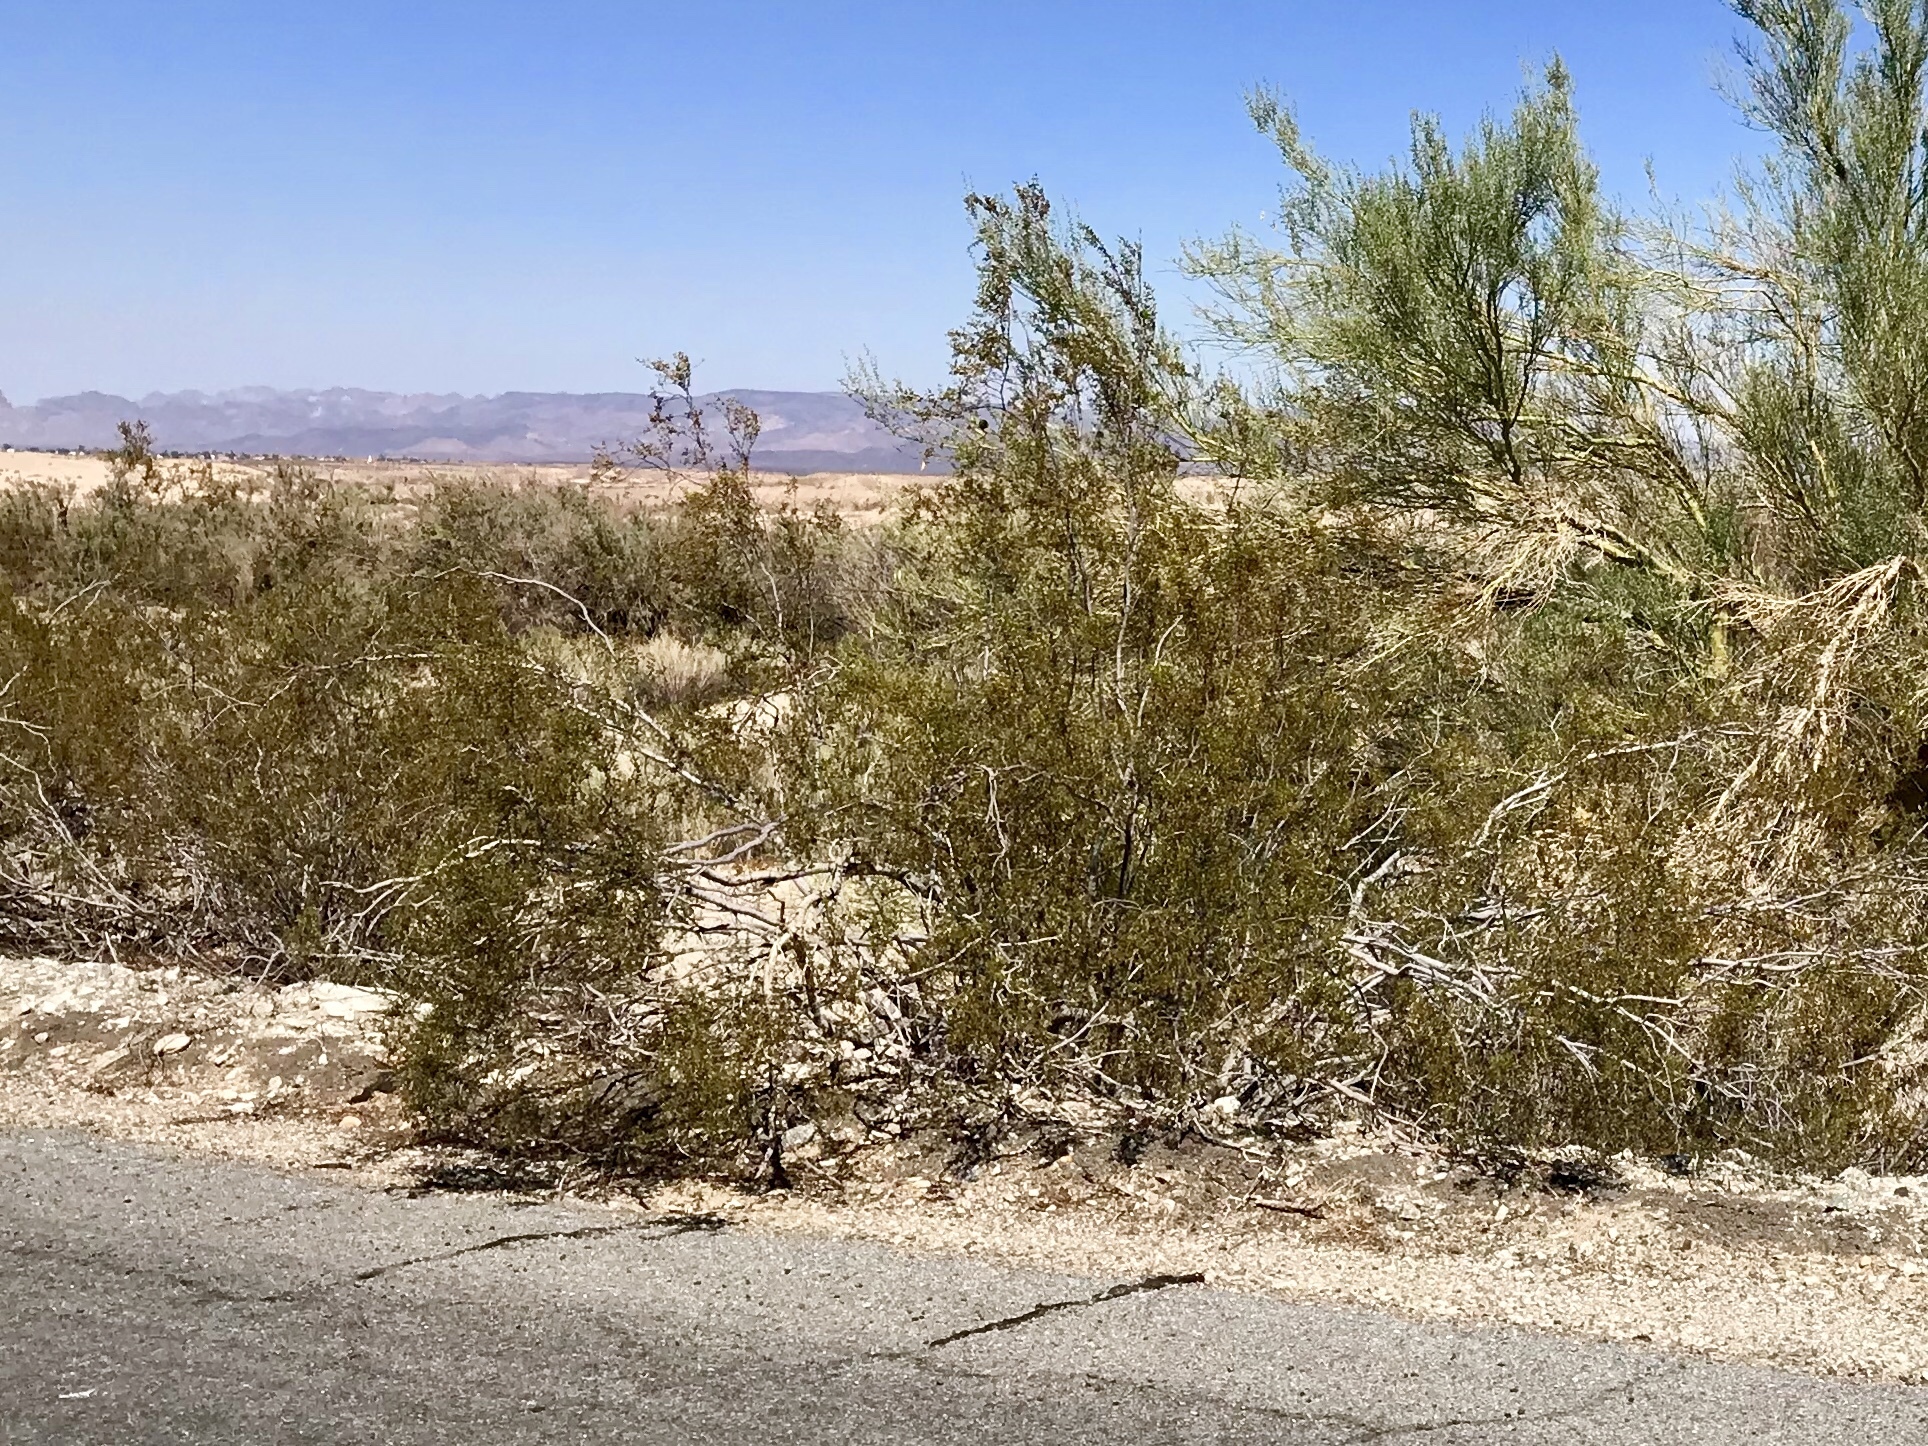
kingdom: Plantae
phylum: Tracheophyta
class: Magnoliopsida
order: Zygophyllales
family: Zygophyllaceae
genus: Larrea
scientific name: Larrea tridentata
